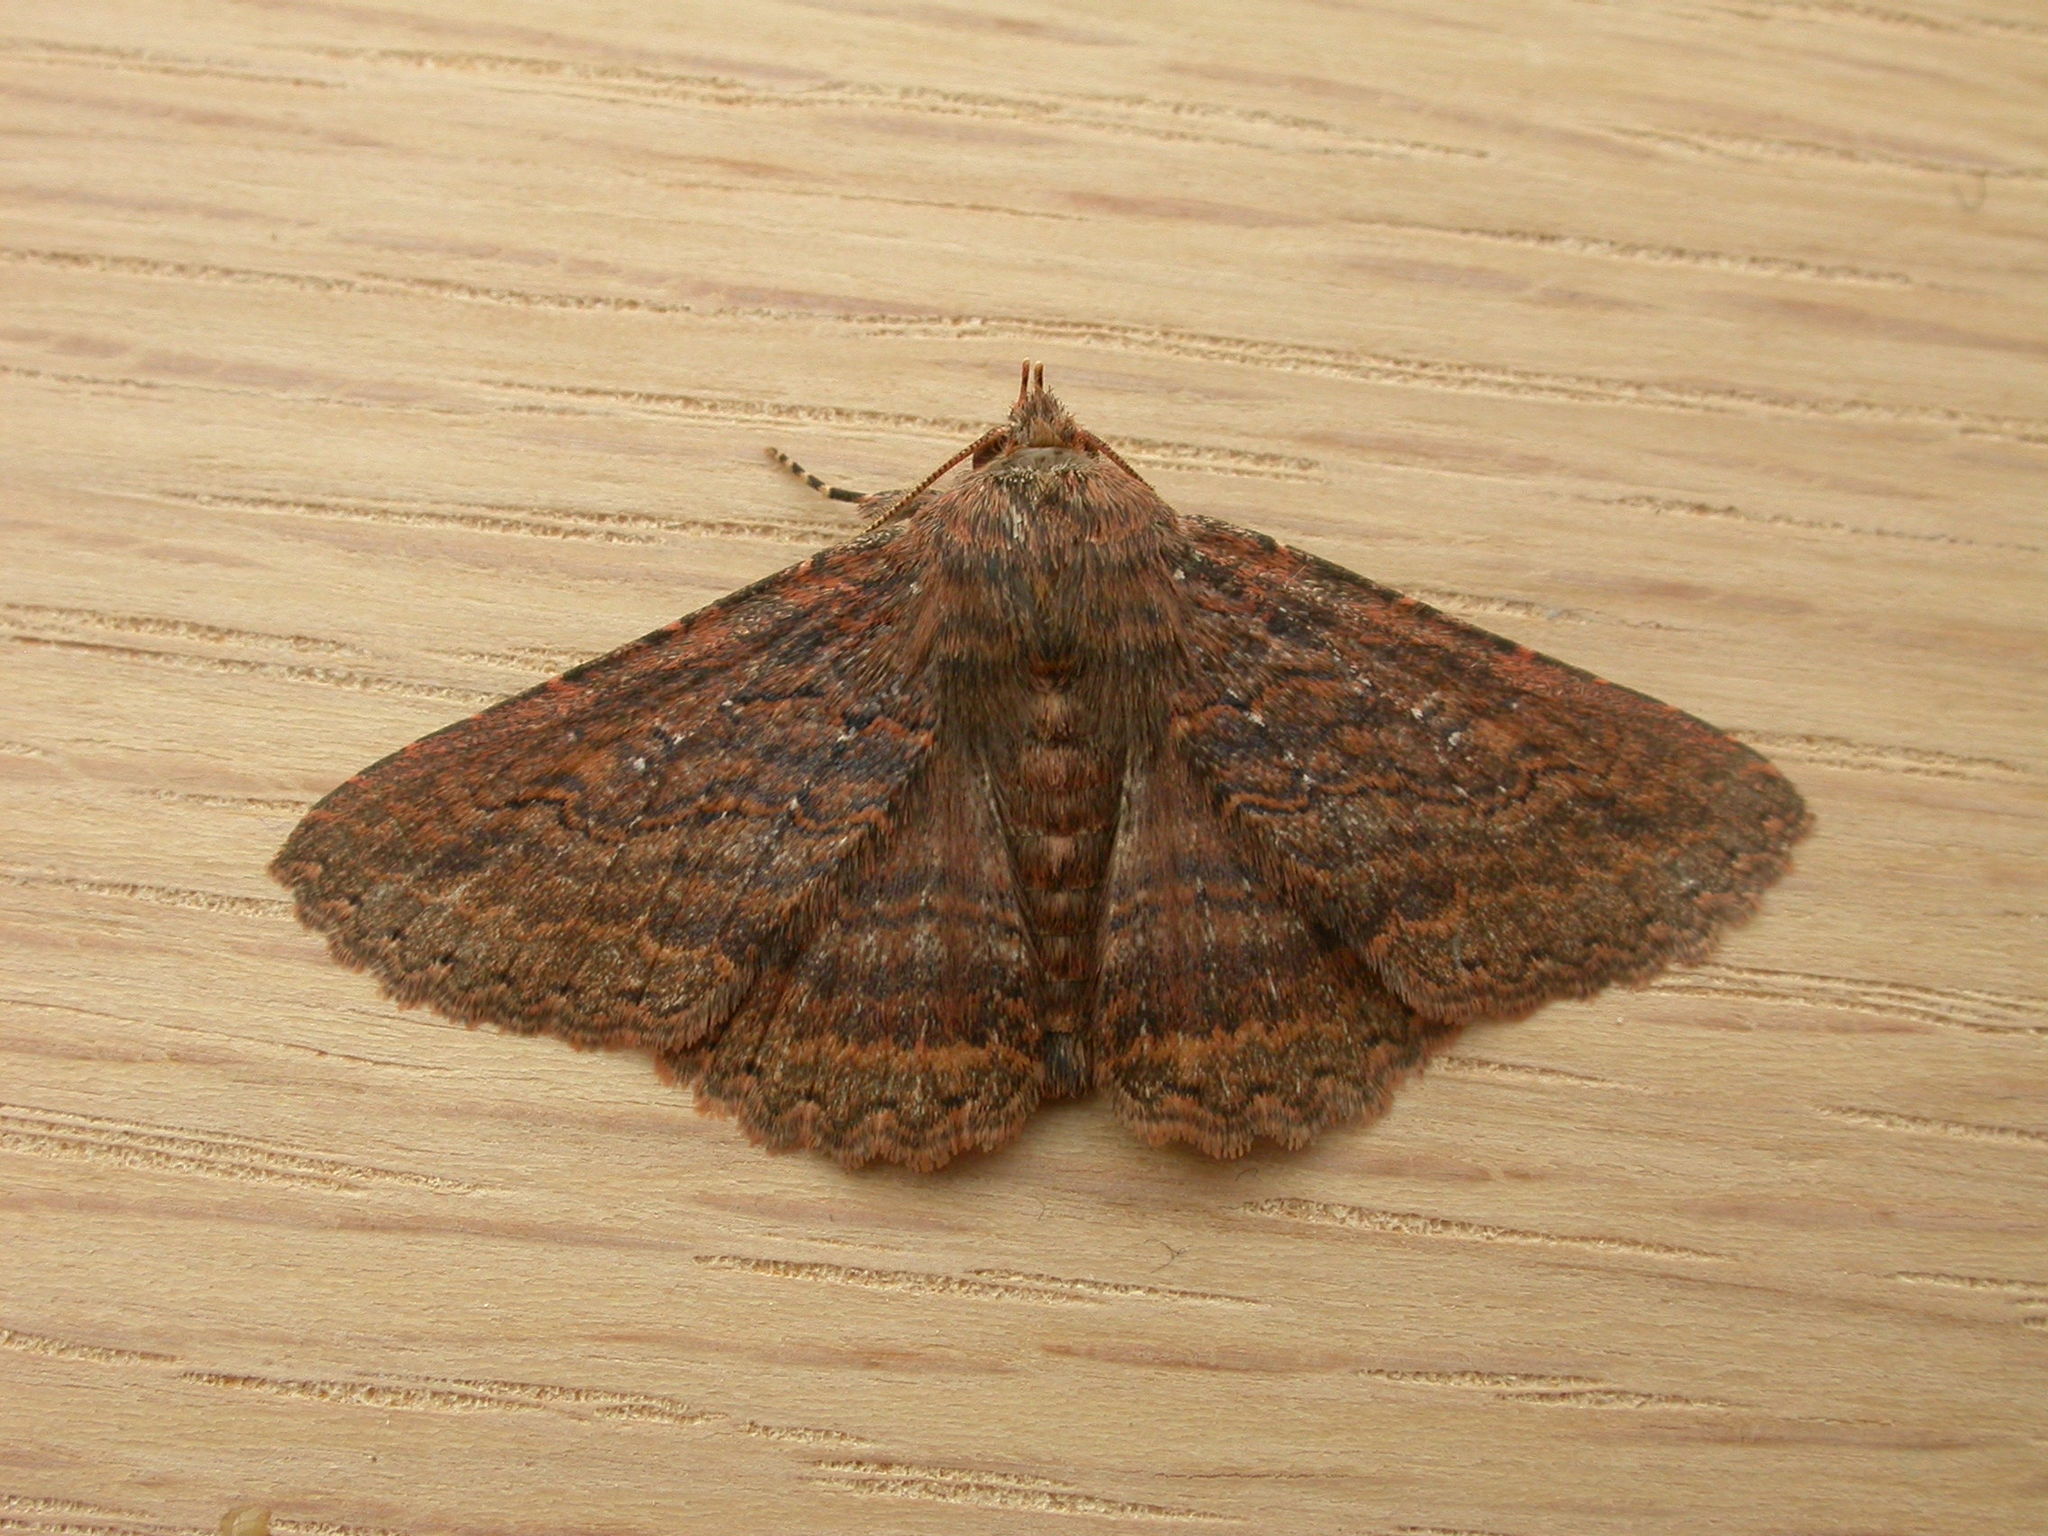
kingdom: Animalia
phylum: Arthropoda
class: Insecta
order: Lepidoptera
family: Erebidae
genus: Praxis
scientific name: Praxis porphyretica
